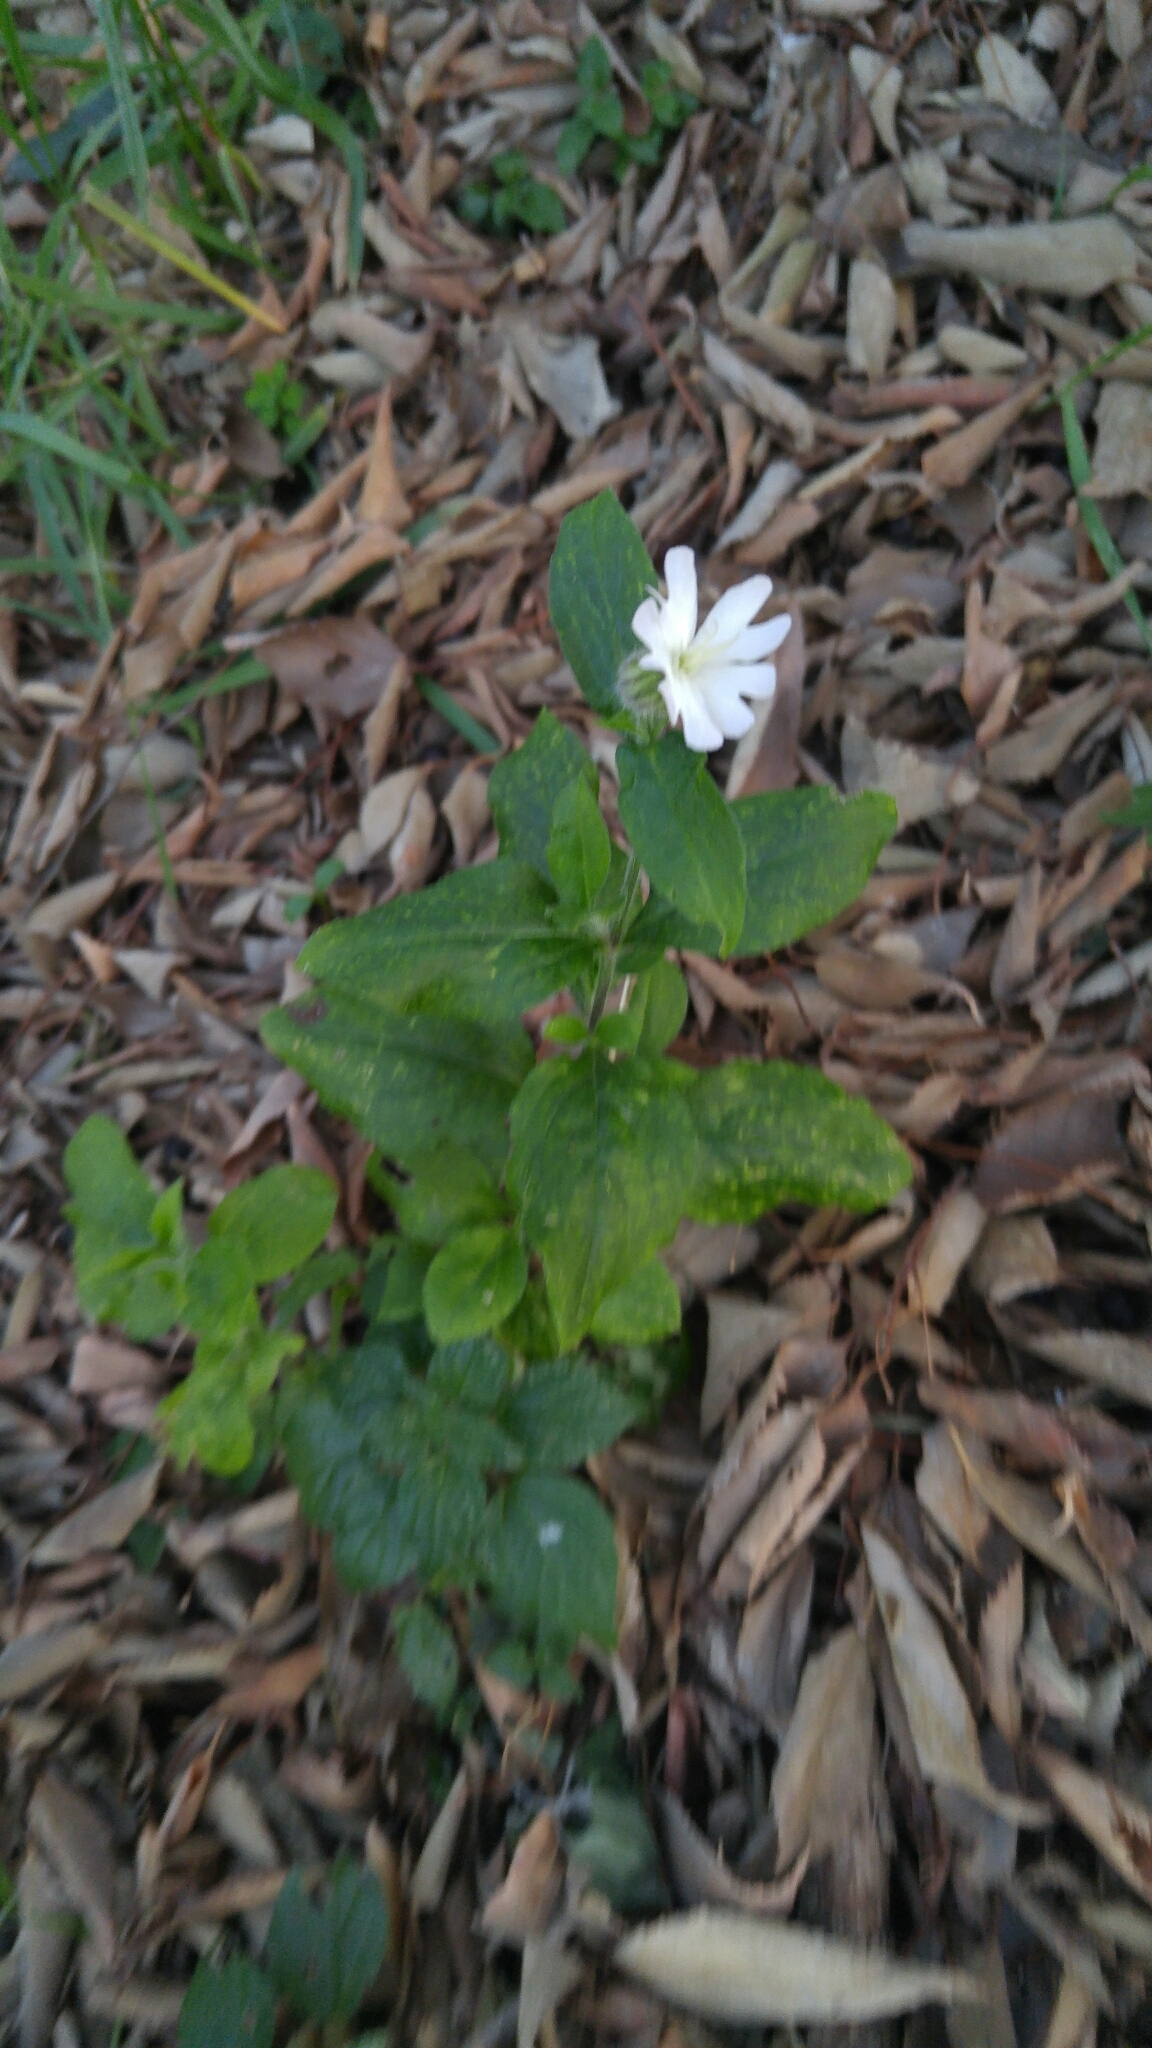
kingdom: Plantae
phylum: Tracheophyta
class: Magnoliopsida
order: Caryophyllales
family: Caryophyllaceae
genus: Silene
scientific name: Silene latifolia
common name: White campion
